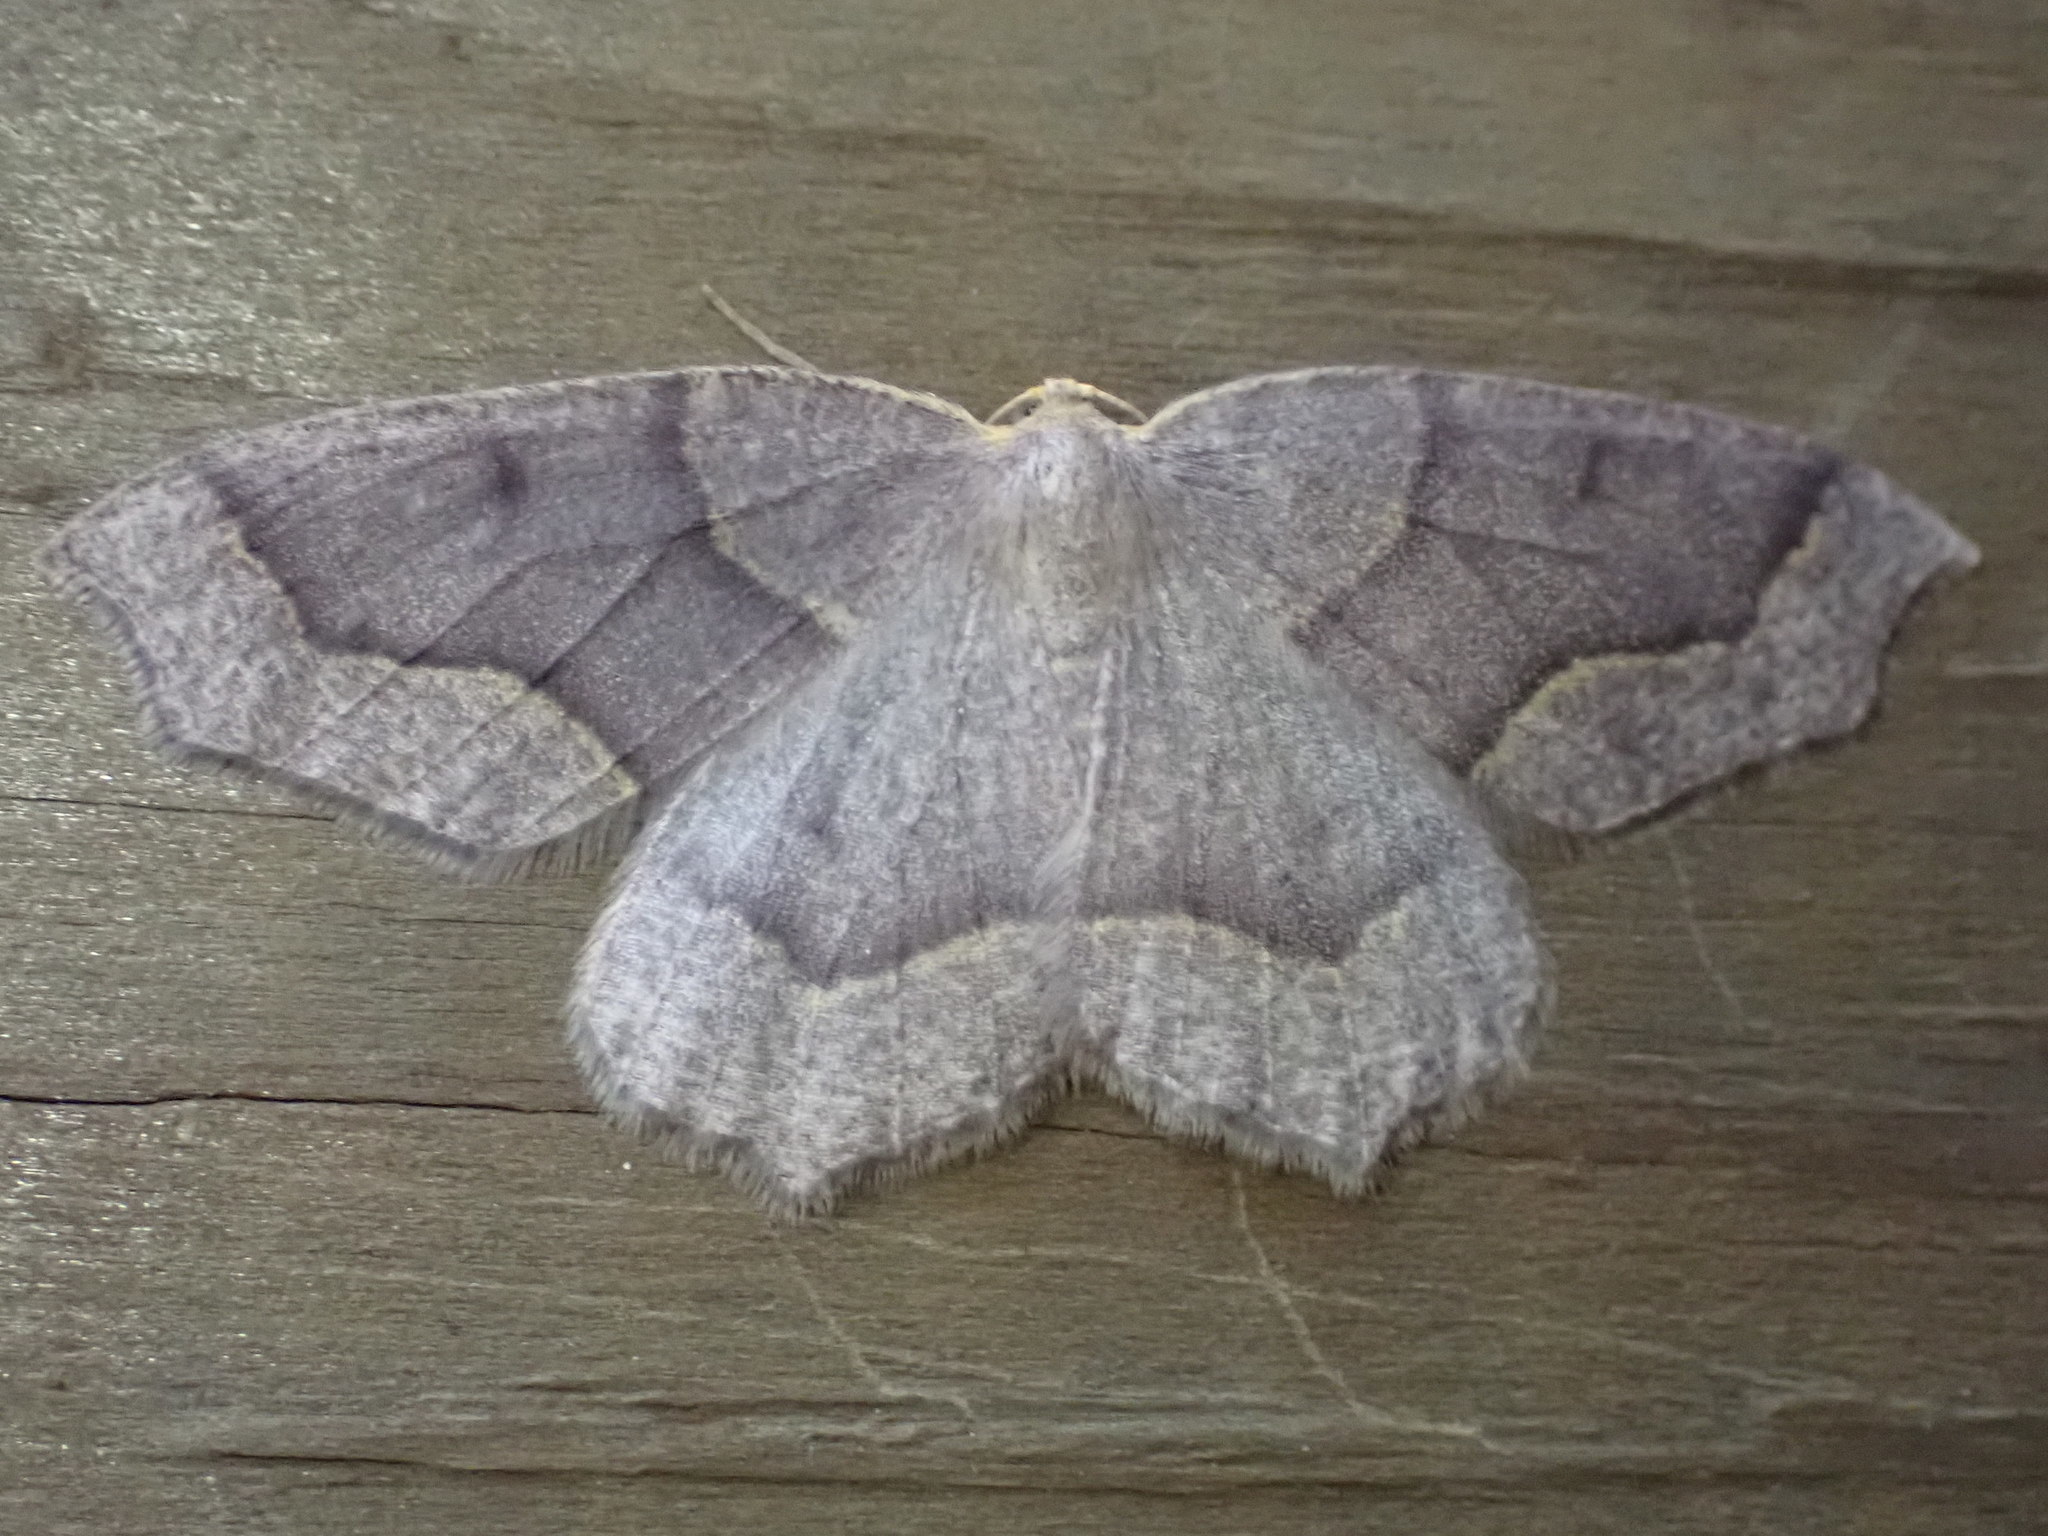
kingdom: Animalia
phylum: Arthropoda
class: Insecta
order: Lepidoptera
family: Geometridae
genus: Lambdina
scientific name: Lambdina fiscellaria
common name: Hemlock looper
